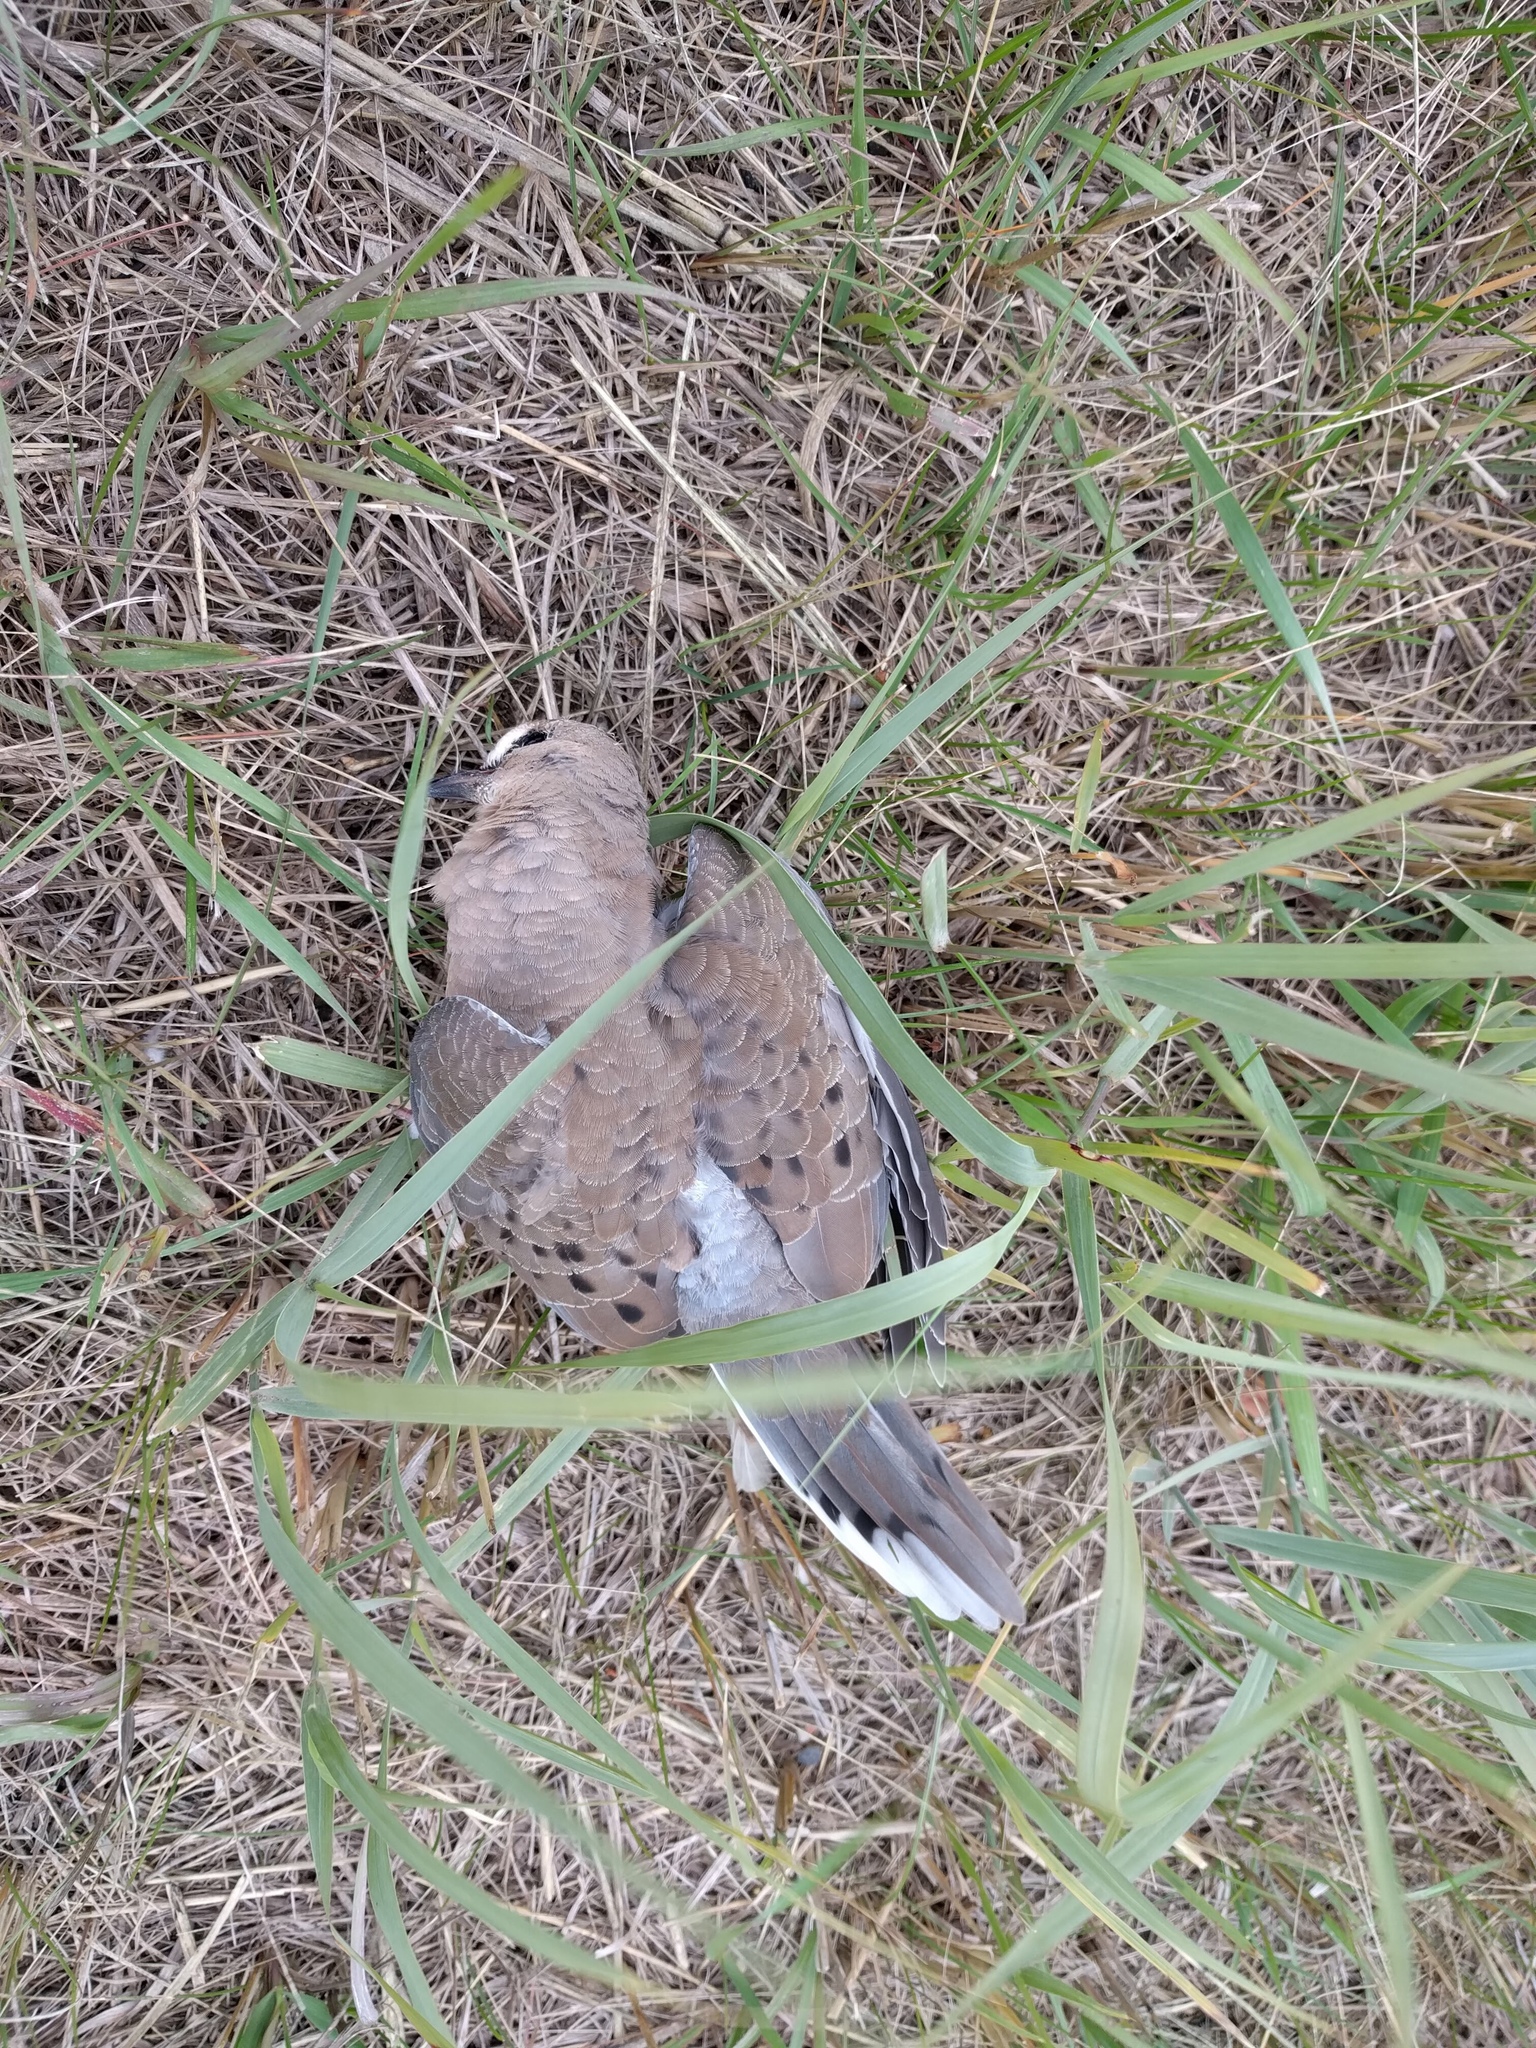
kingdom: Animalia
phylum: Chordata
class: Aves
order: Columbiformes
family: Columbidae
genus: Zenaida
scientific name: Zenaida macroura
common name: Mourning dove
